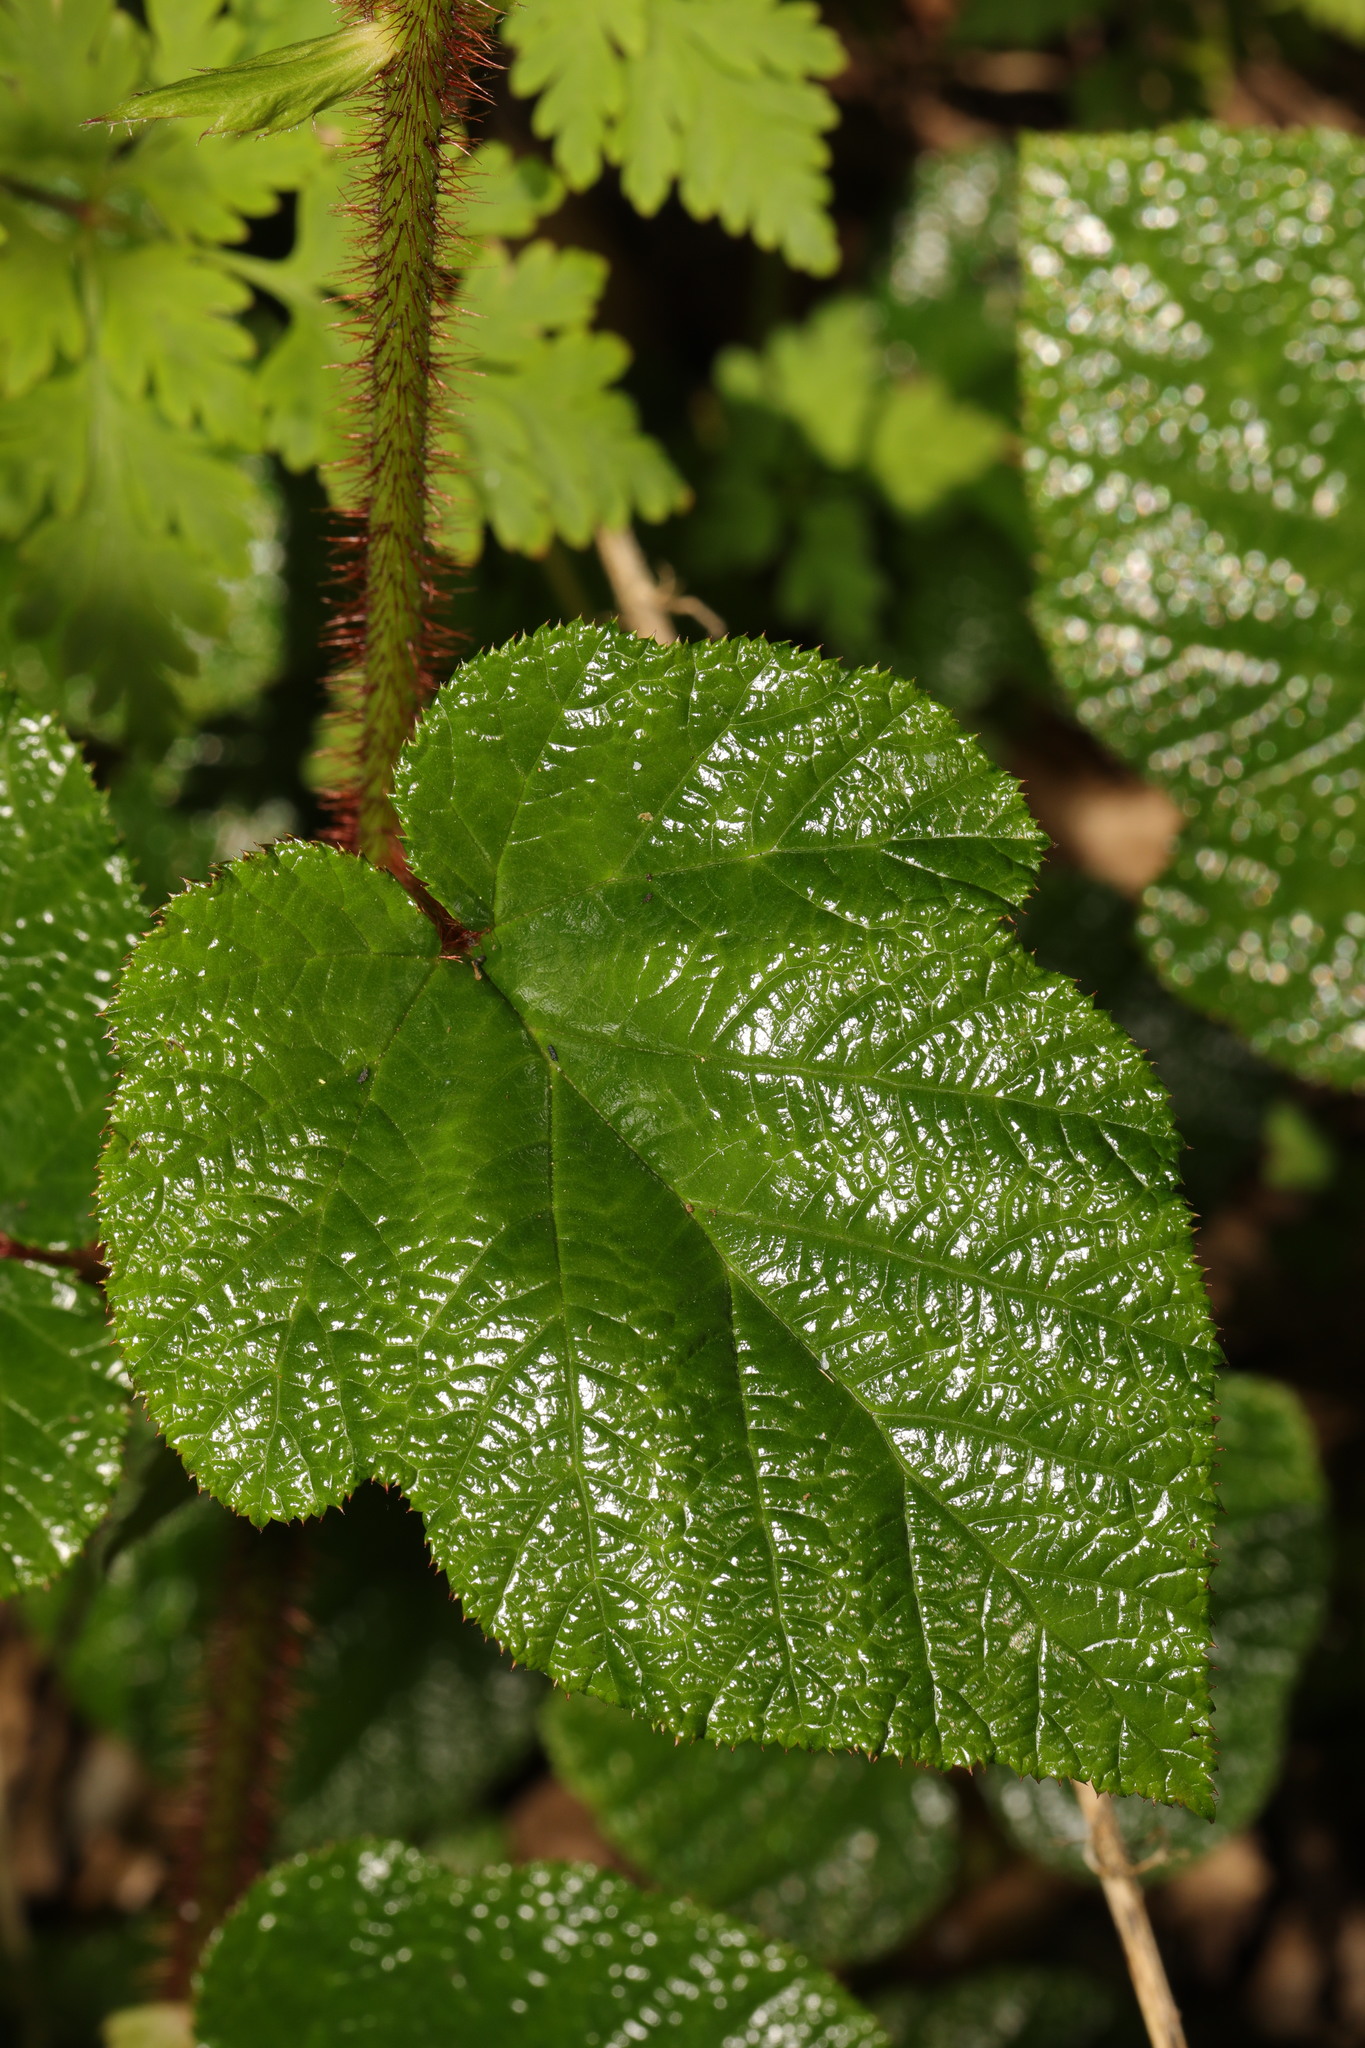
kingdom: Plantae
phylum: Tracheophyta
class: Magnoliopsida
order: Rosales
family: Rosaceae
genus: Rubus
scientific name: Rubus tricolor
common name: Chinese bramble
